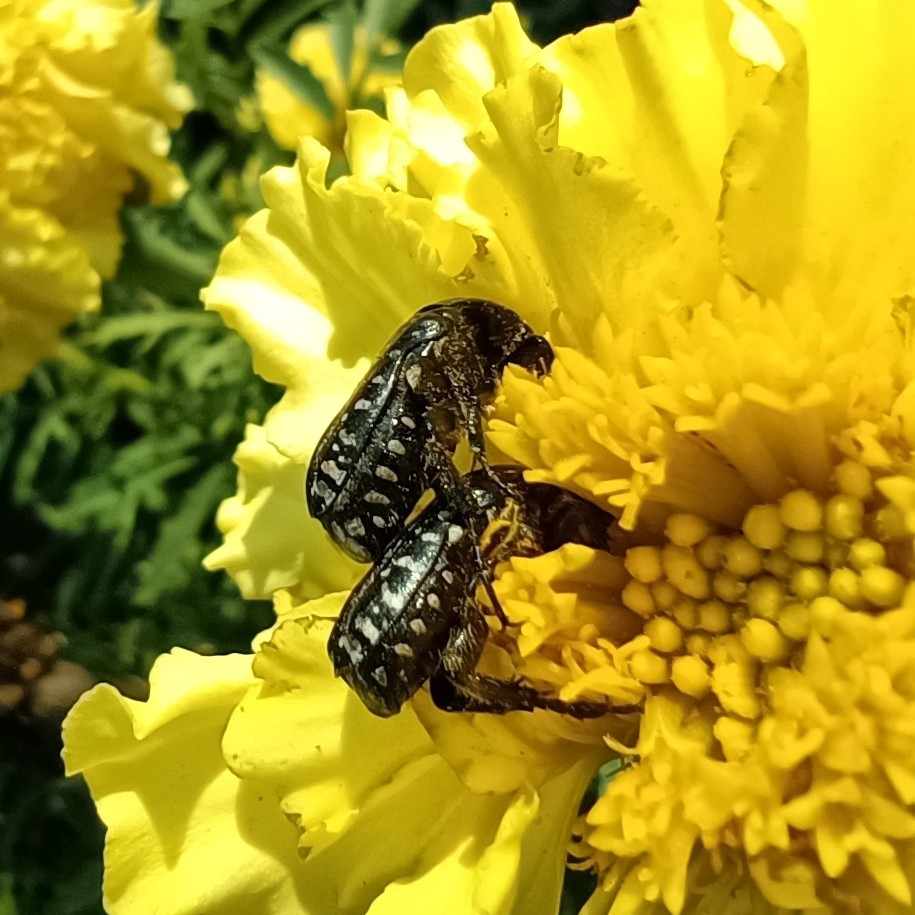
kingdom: Animalia
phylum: Arthropoda
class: Insecta
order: Coleoptera
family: Scarabaeidae
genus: Oxythyrea
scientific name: Oxythyrea funesta
